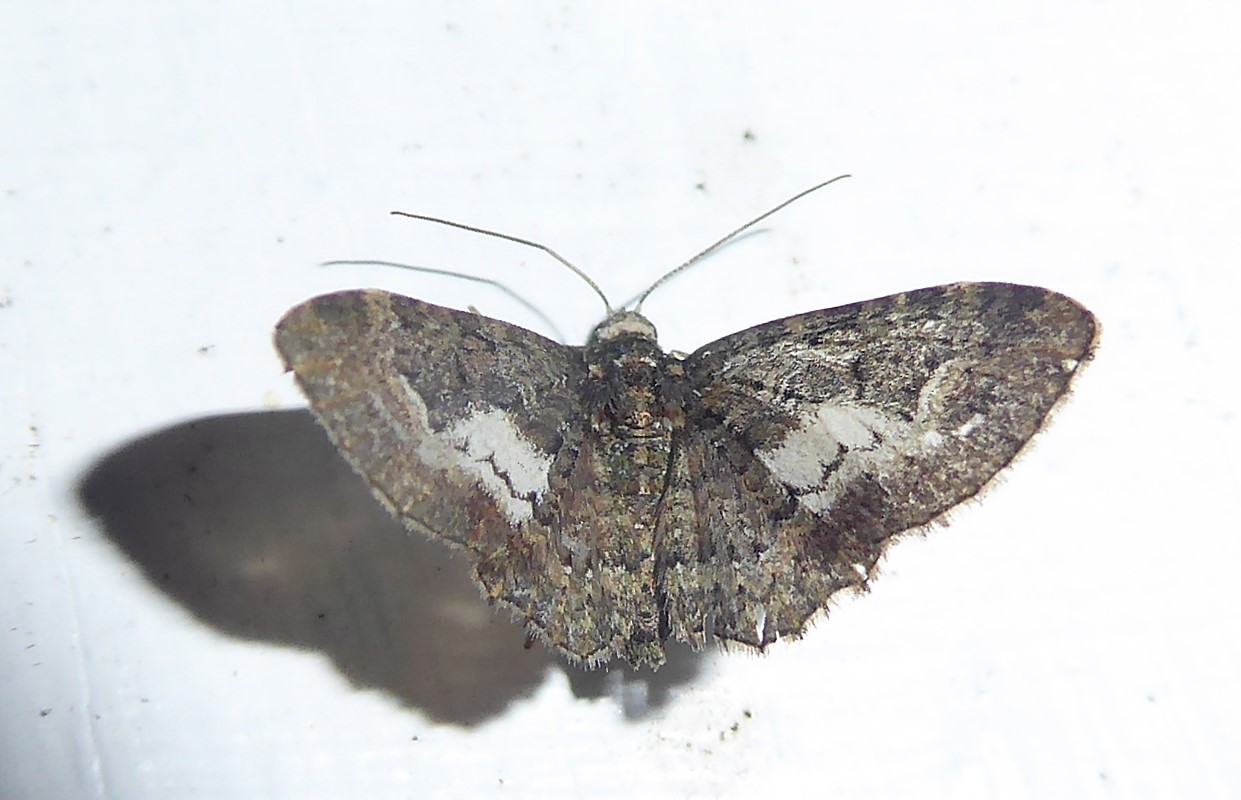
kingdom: Animalia
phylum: Arthropoda
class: Insecta
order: Lepidoptera
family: Geometridae
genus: Pasiphilodes
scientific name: Pasiphilodes testulata
